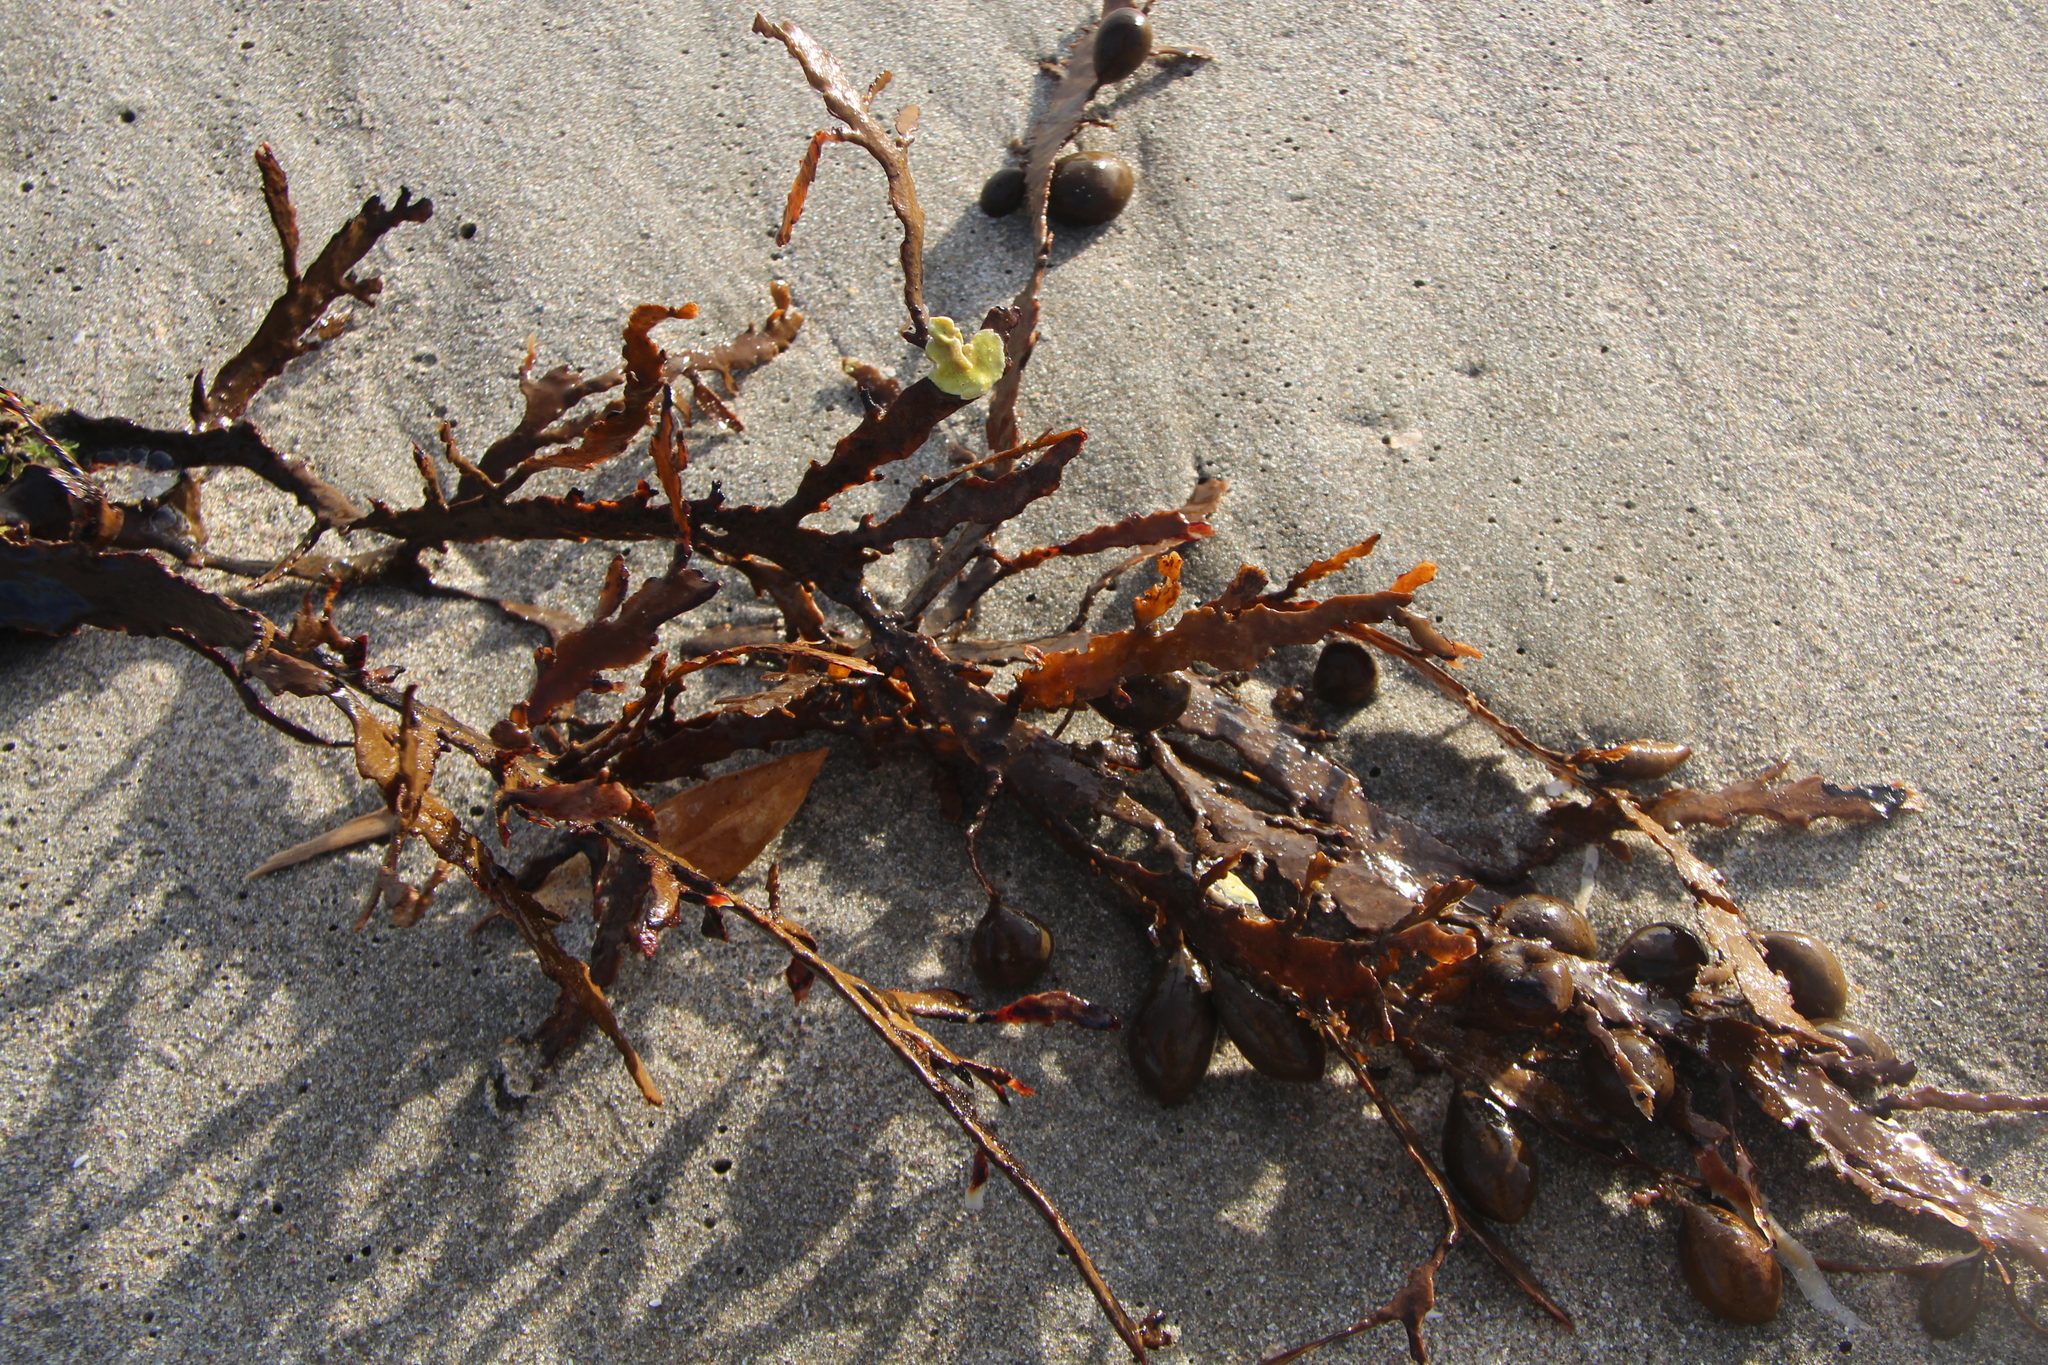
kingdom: Chromista
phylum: Ochrophyta
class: Phaeophyceae
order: Fucales
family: Sargassaceae
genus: Carpophyllum
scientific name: Carpophyllum maschalocarpum
